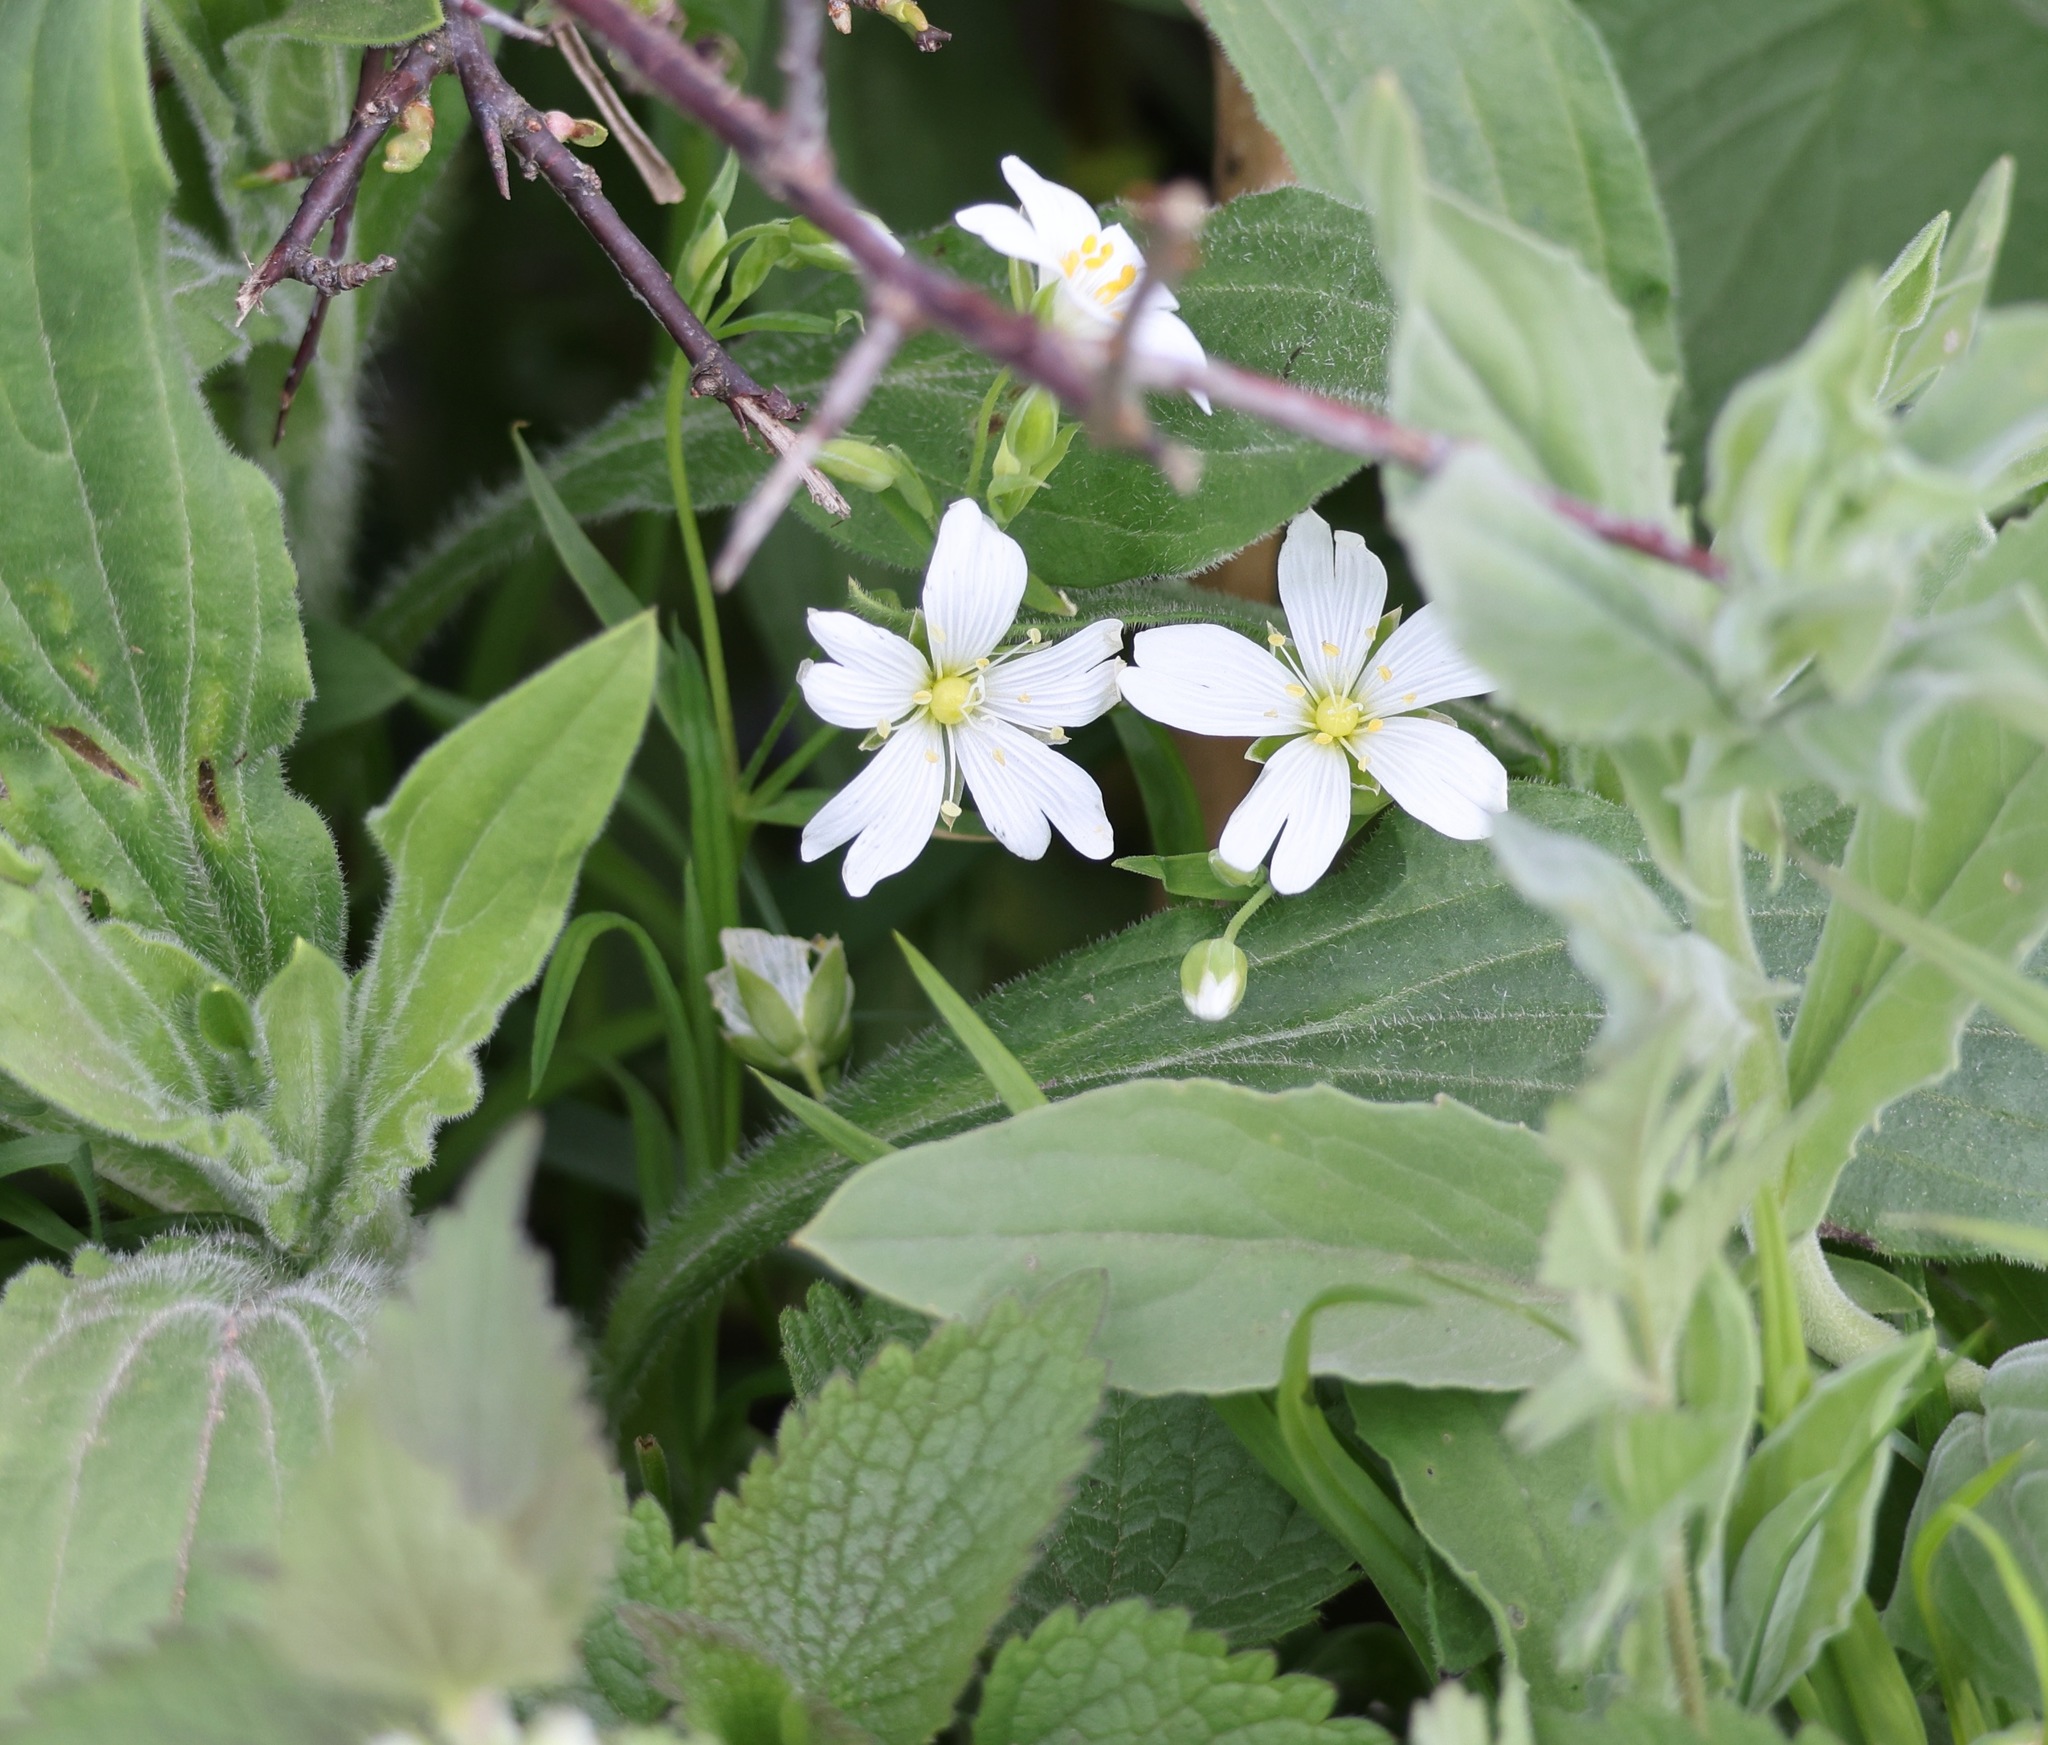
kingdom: Plantae
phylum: Tracheophyta
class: Magnoliopsida
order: Caryophyllales
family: Caryophyllaceae
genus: Rabelera
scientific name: Rabelera holostea
